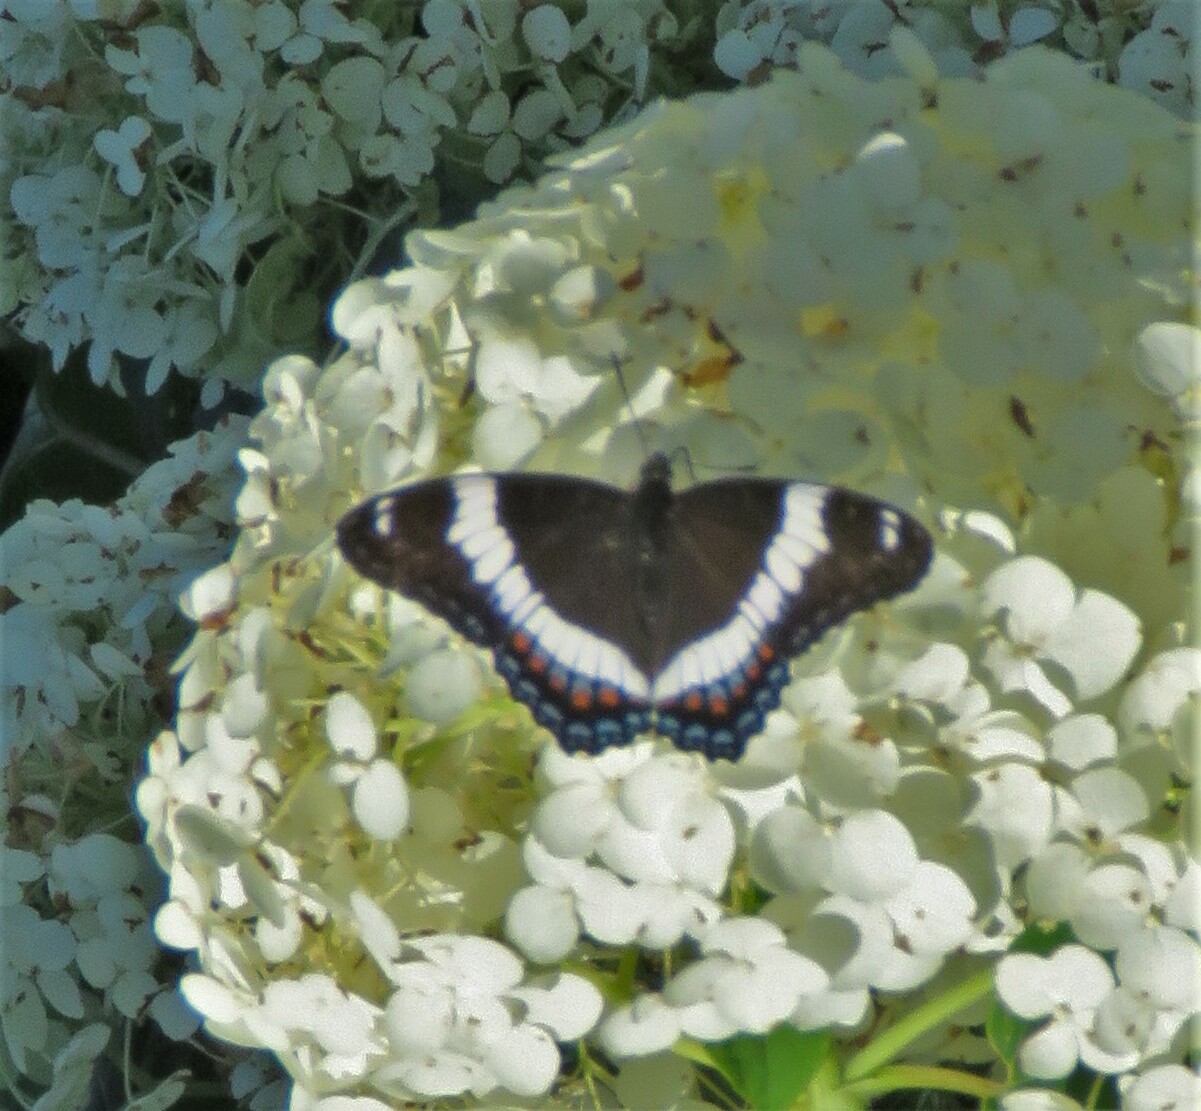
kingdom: Animalia
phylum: Arthropoda
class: Insecta
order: Lepidoptera
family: Nymphalidae
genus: Limenitis
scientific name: Limenitis arthemis
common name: Red-spotted admiral
